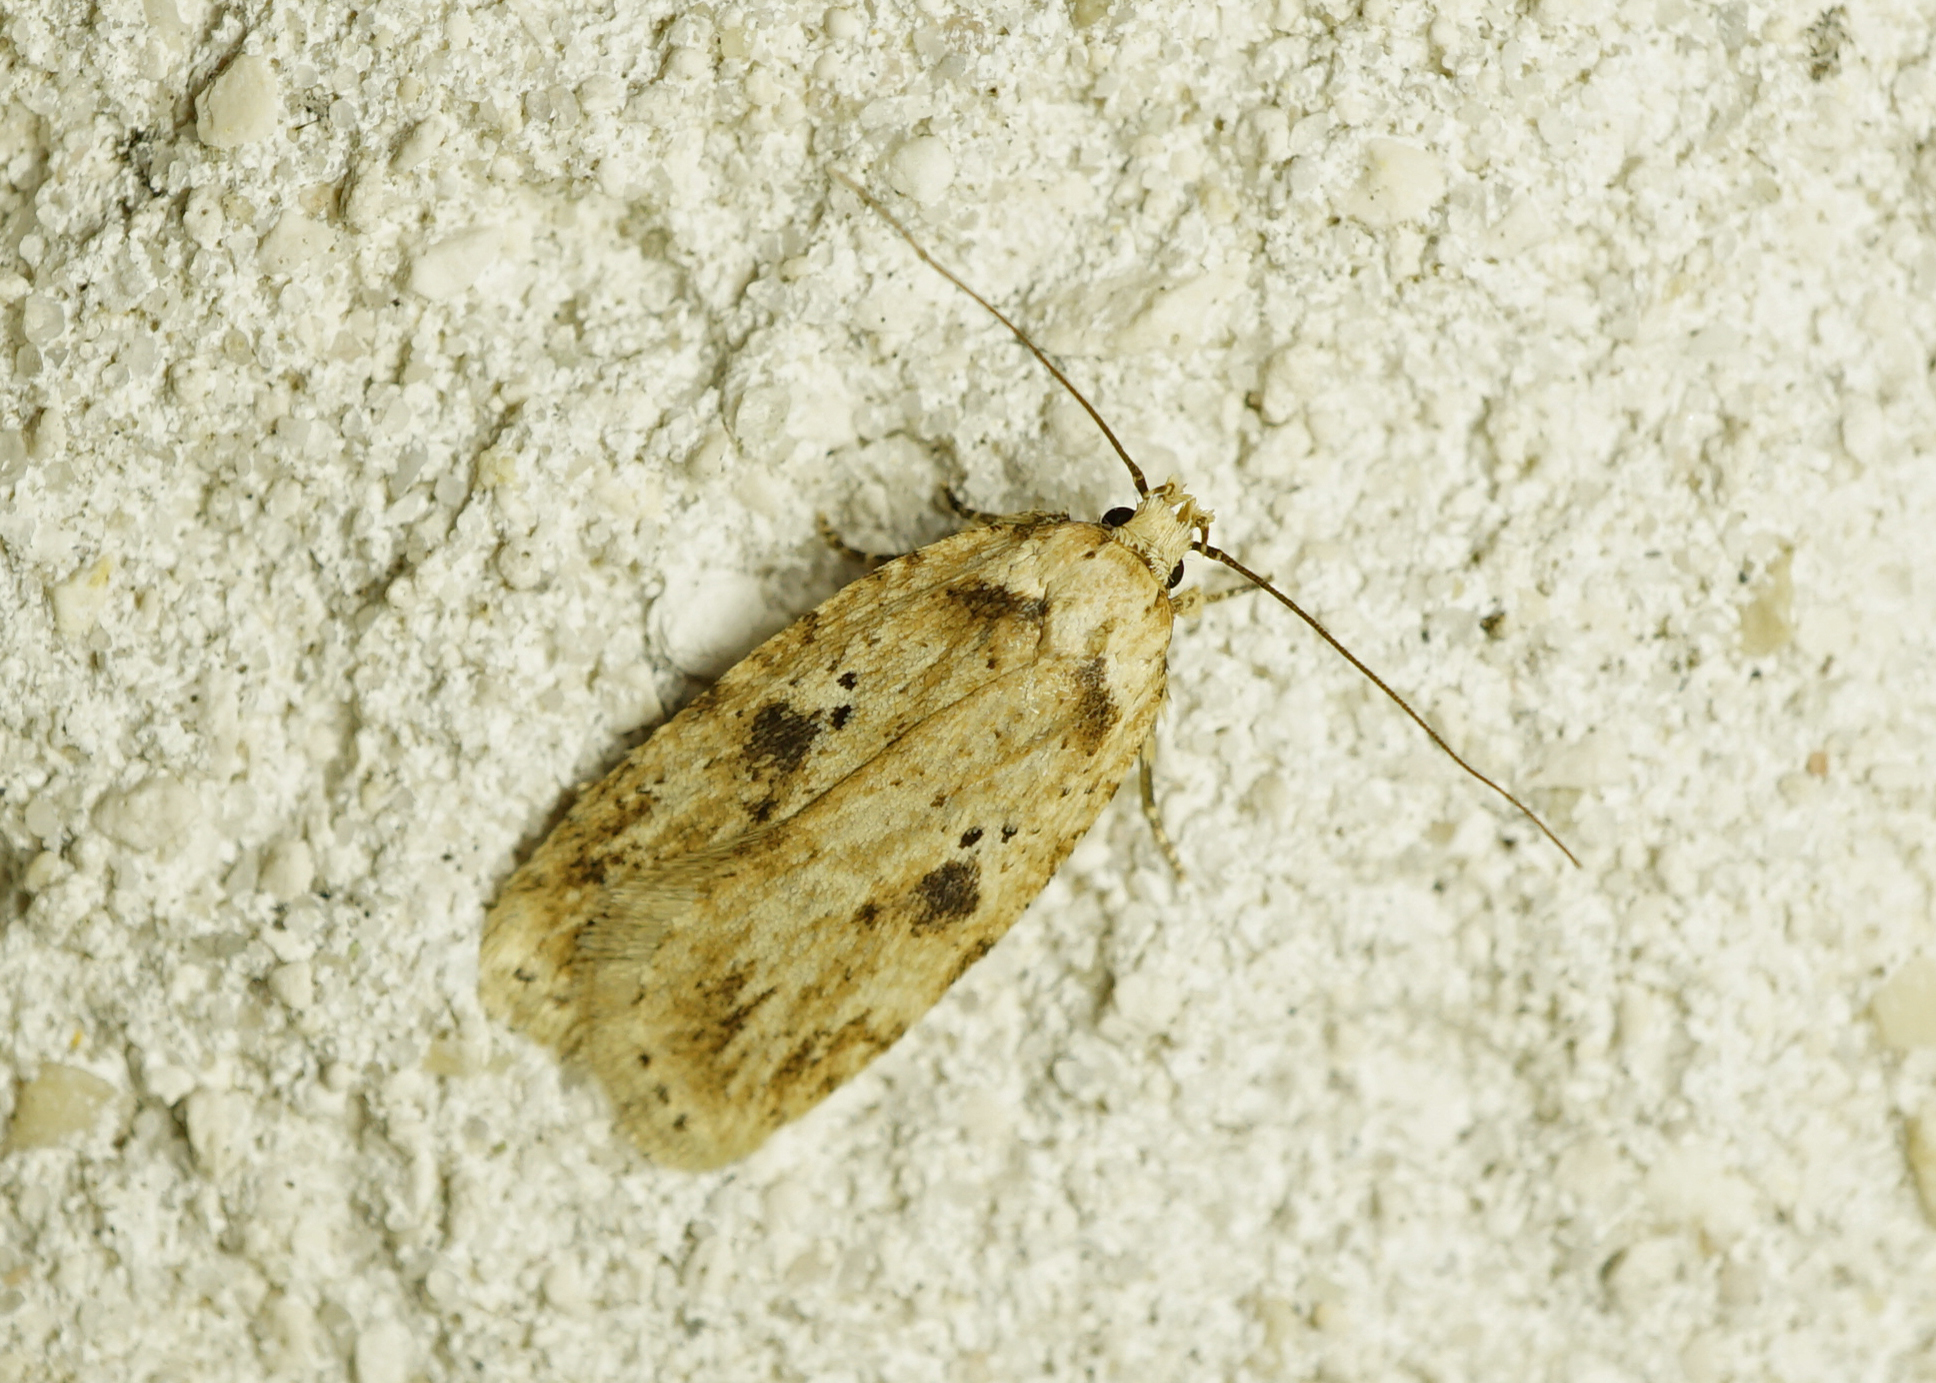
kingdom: Animalia
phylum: Arthropoda
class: Insecta
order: Lepidoptera
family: Depressariidae
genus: Agonopterix
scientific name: Agonopterix arenella
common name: Brindled flat-body
